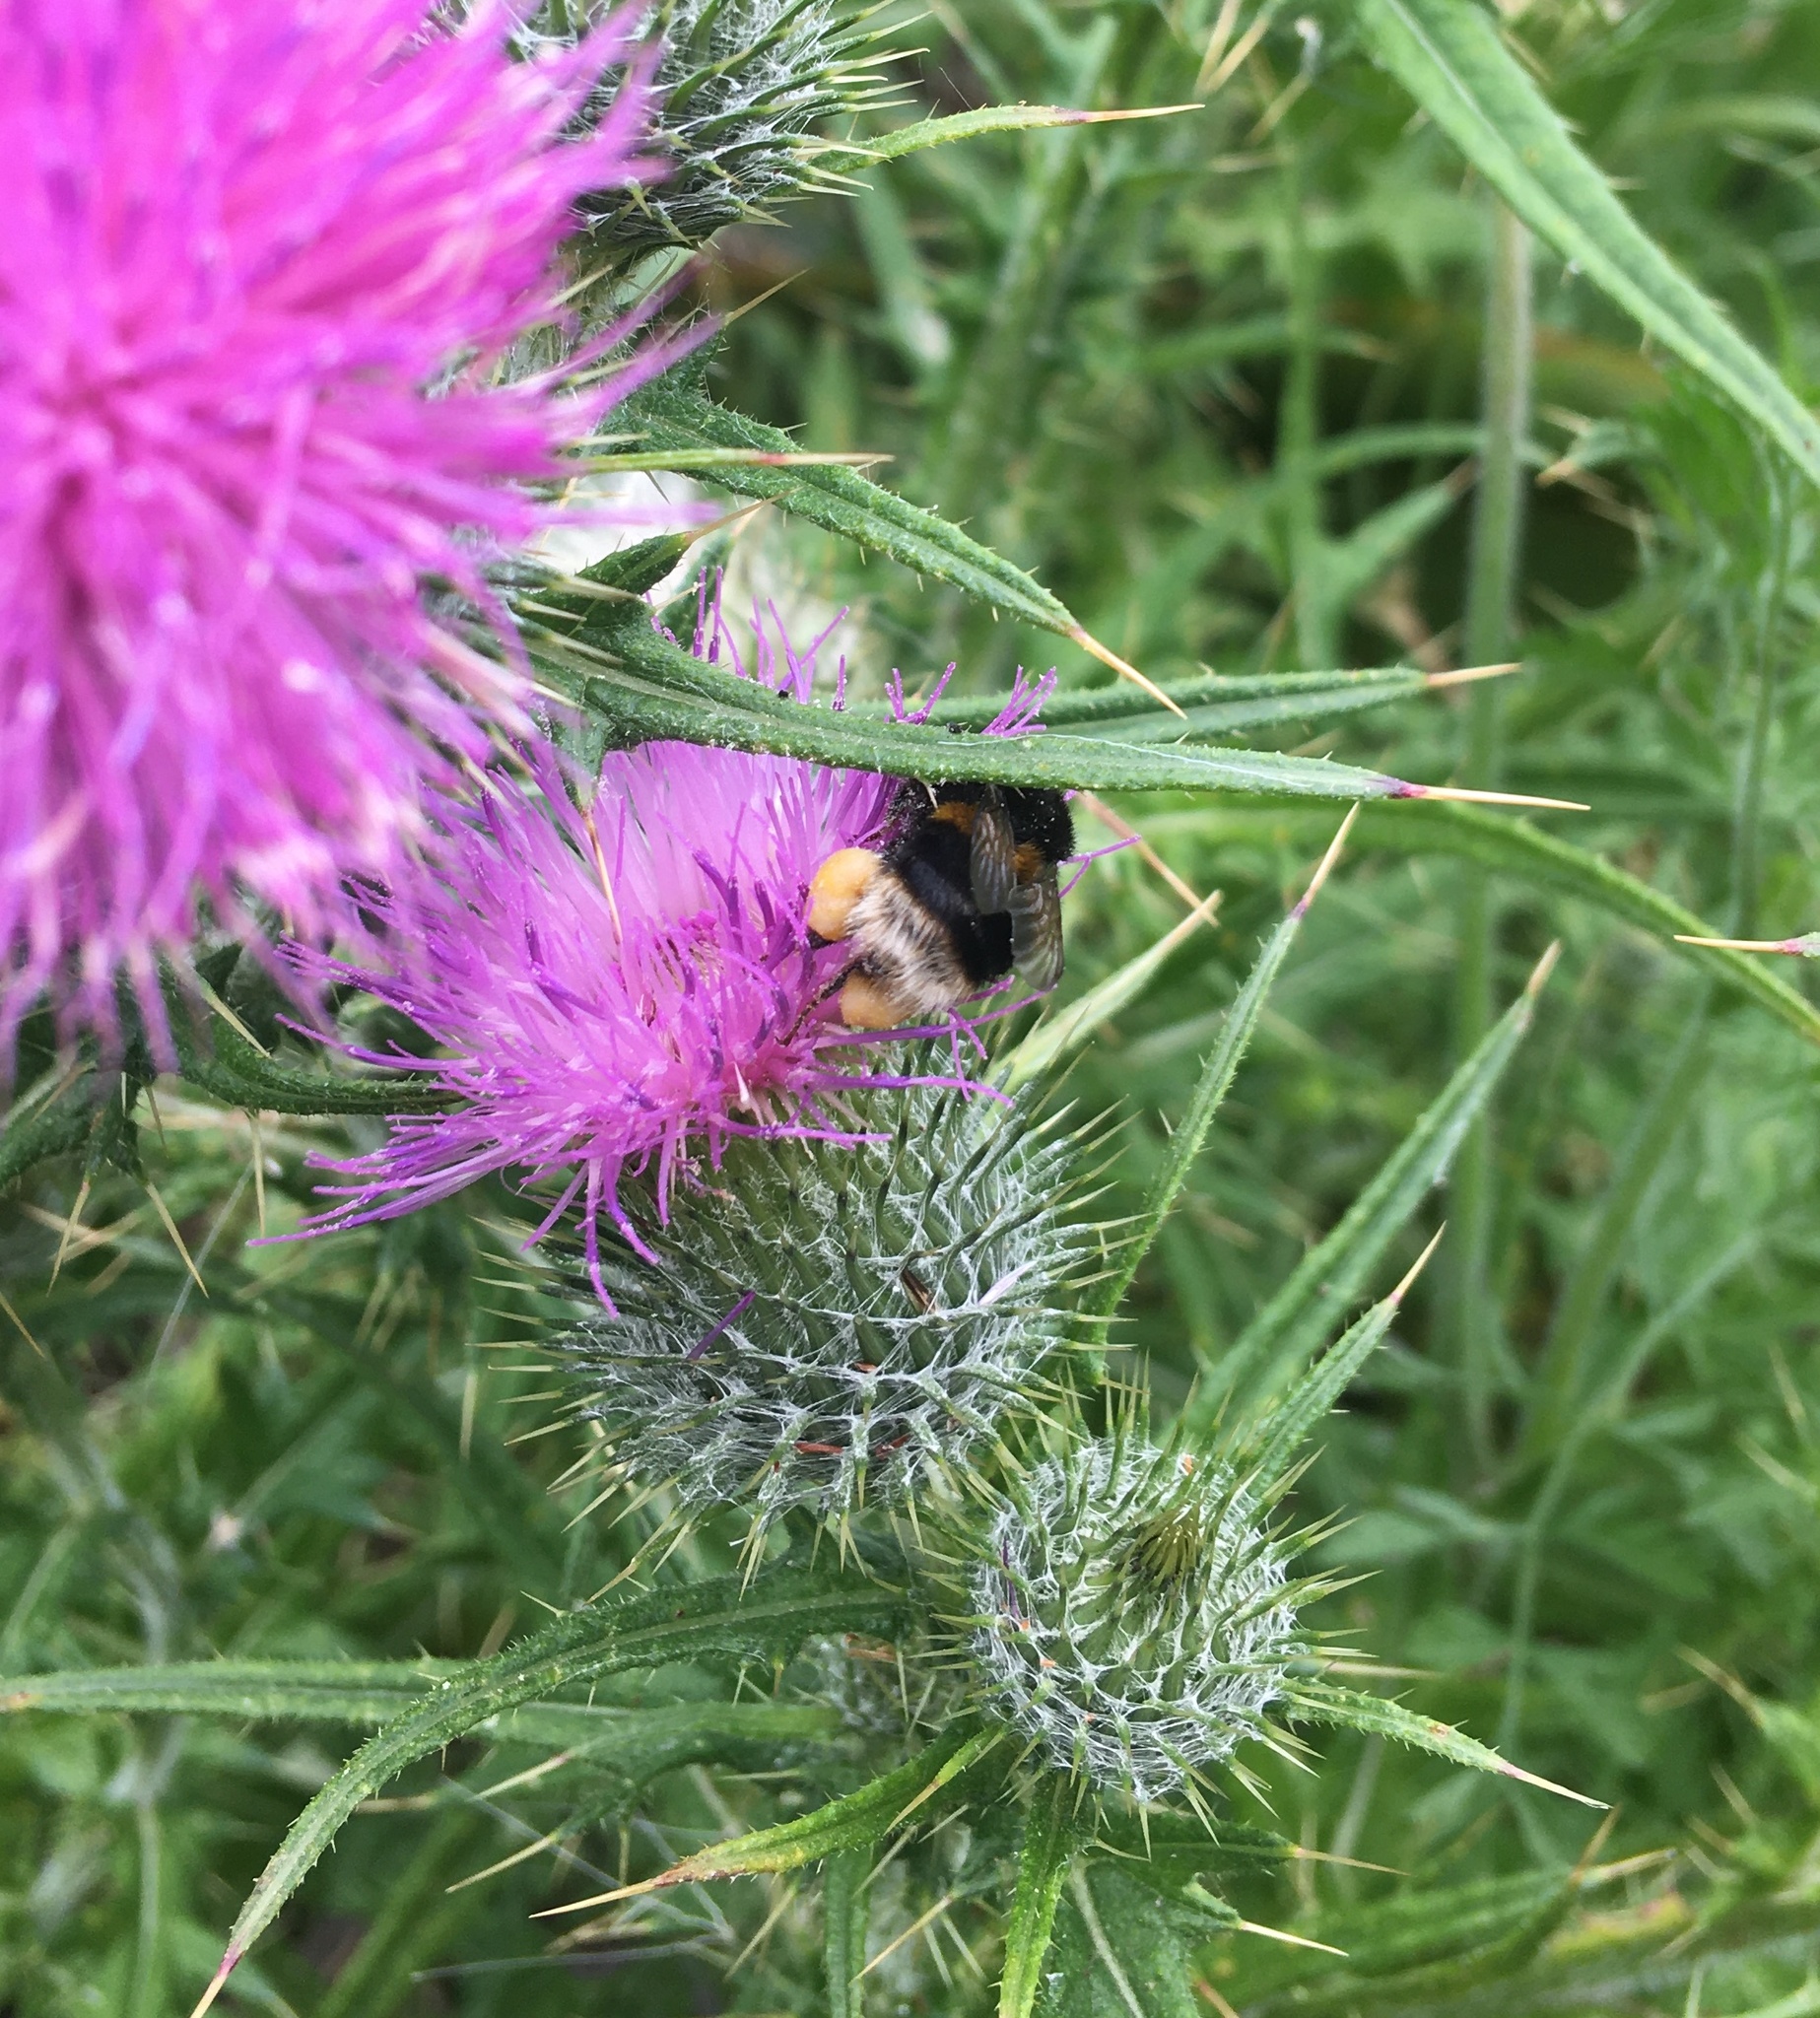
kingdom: Animalia
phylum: Arthropoda
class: Insecta
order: Hymenoptera
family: Apidae
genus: Bombus
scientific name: Bombus terrestris
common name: Buff-tailed bumblebee
